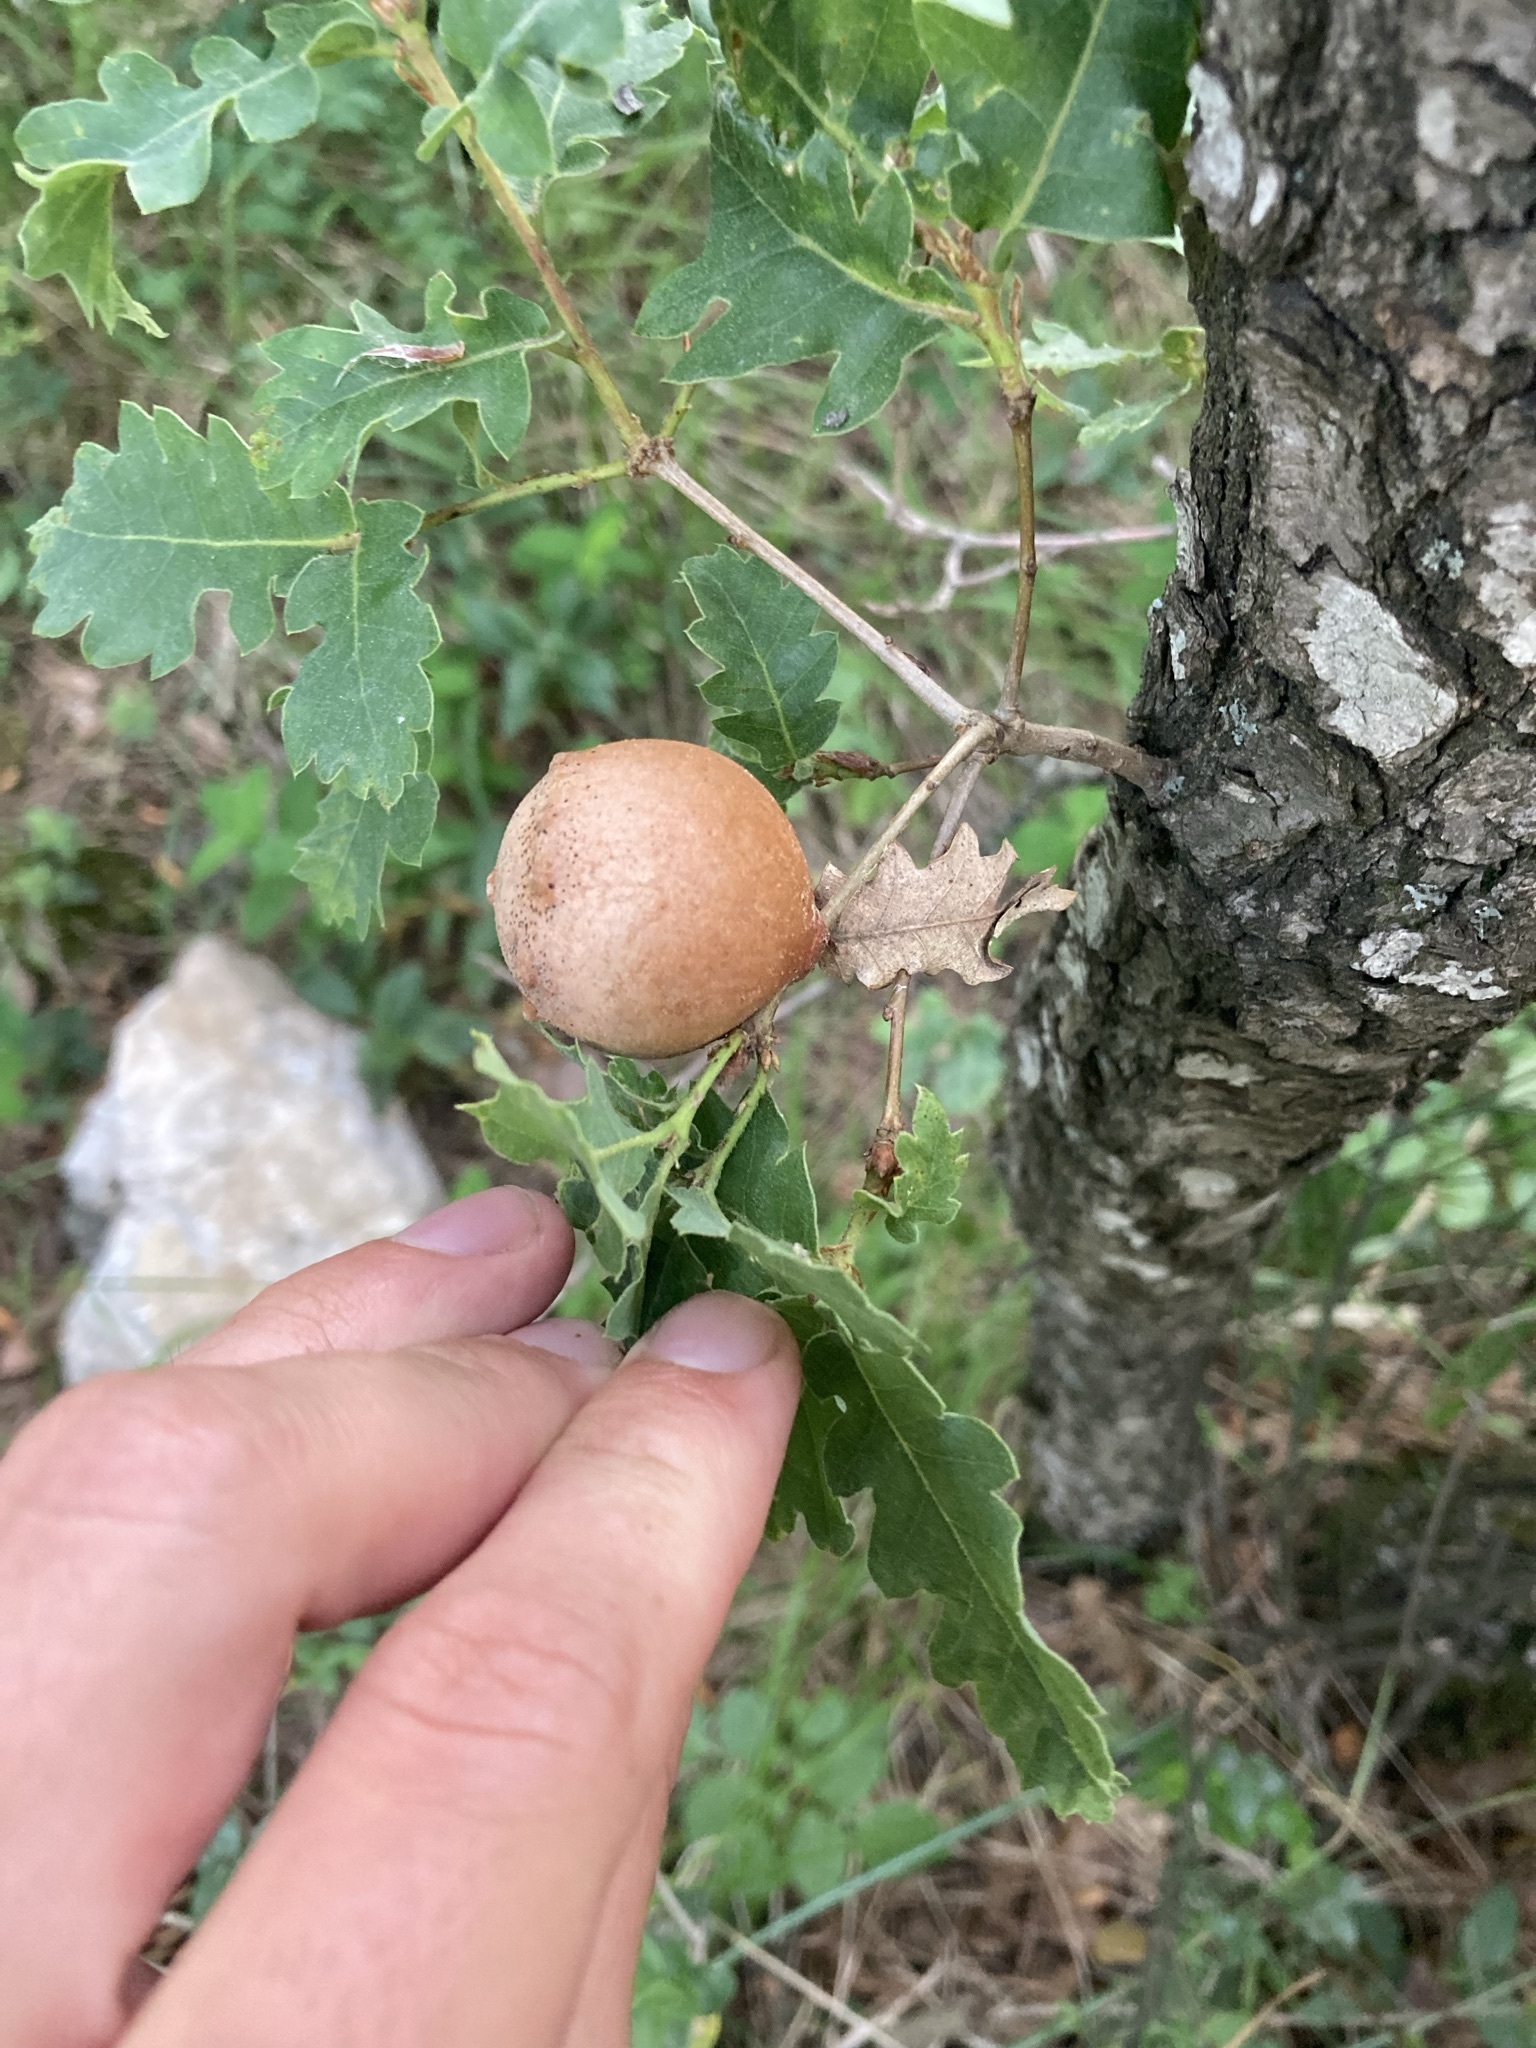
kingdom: Animalia
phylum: Arthropoda
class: Insecta
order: Hymenoptera
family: Cynipidae
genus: Andricus
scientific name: Andricus quercustozae
